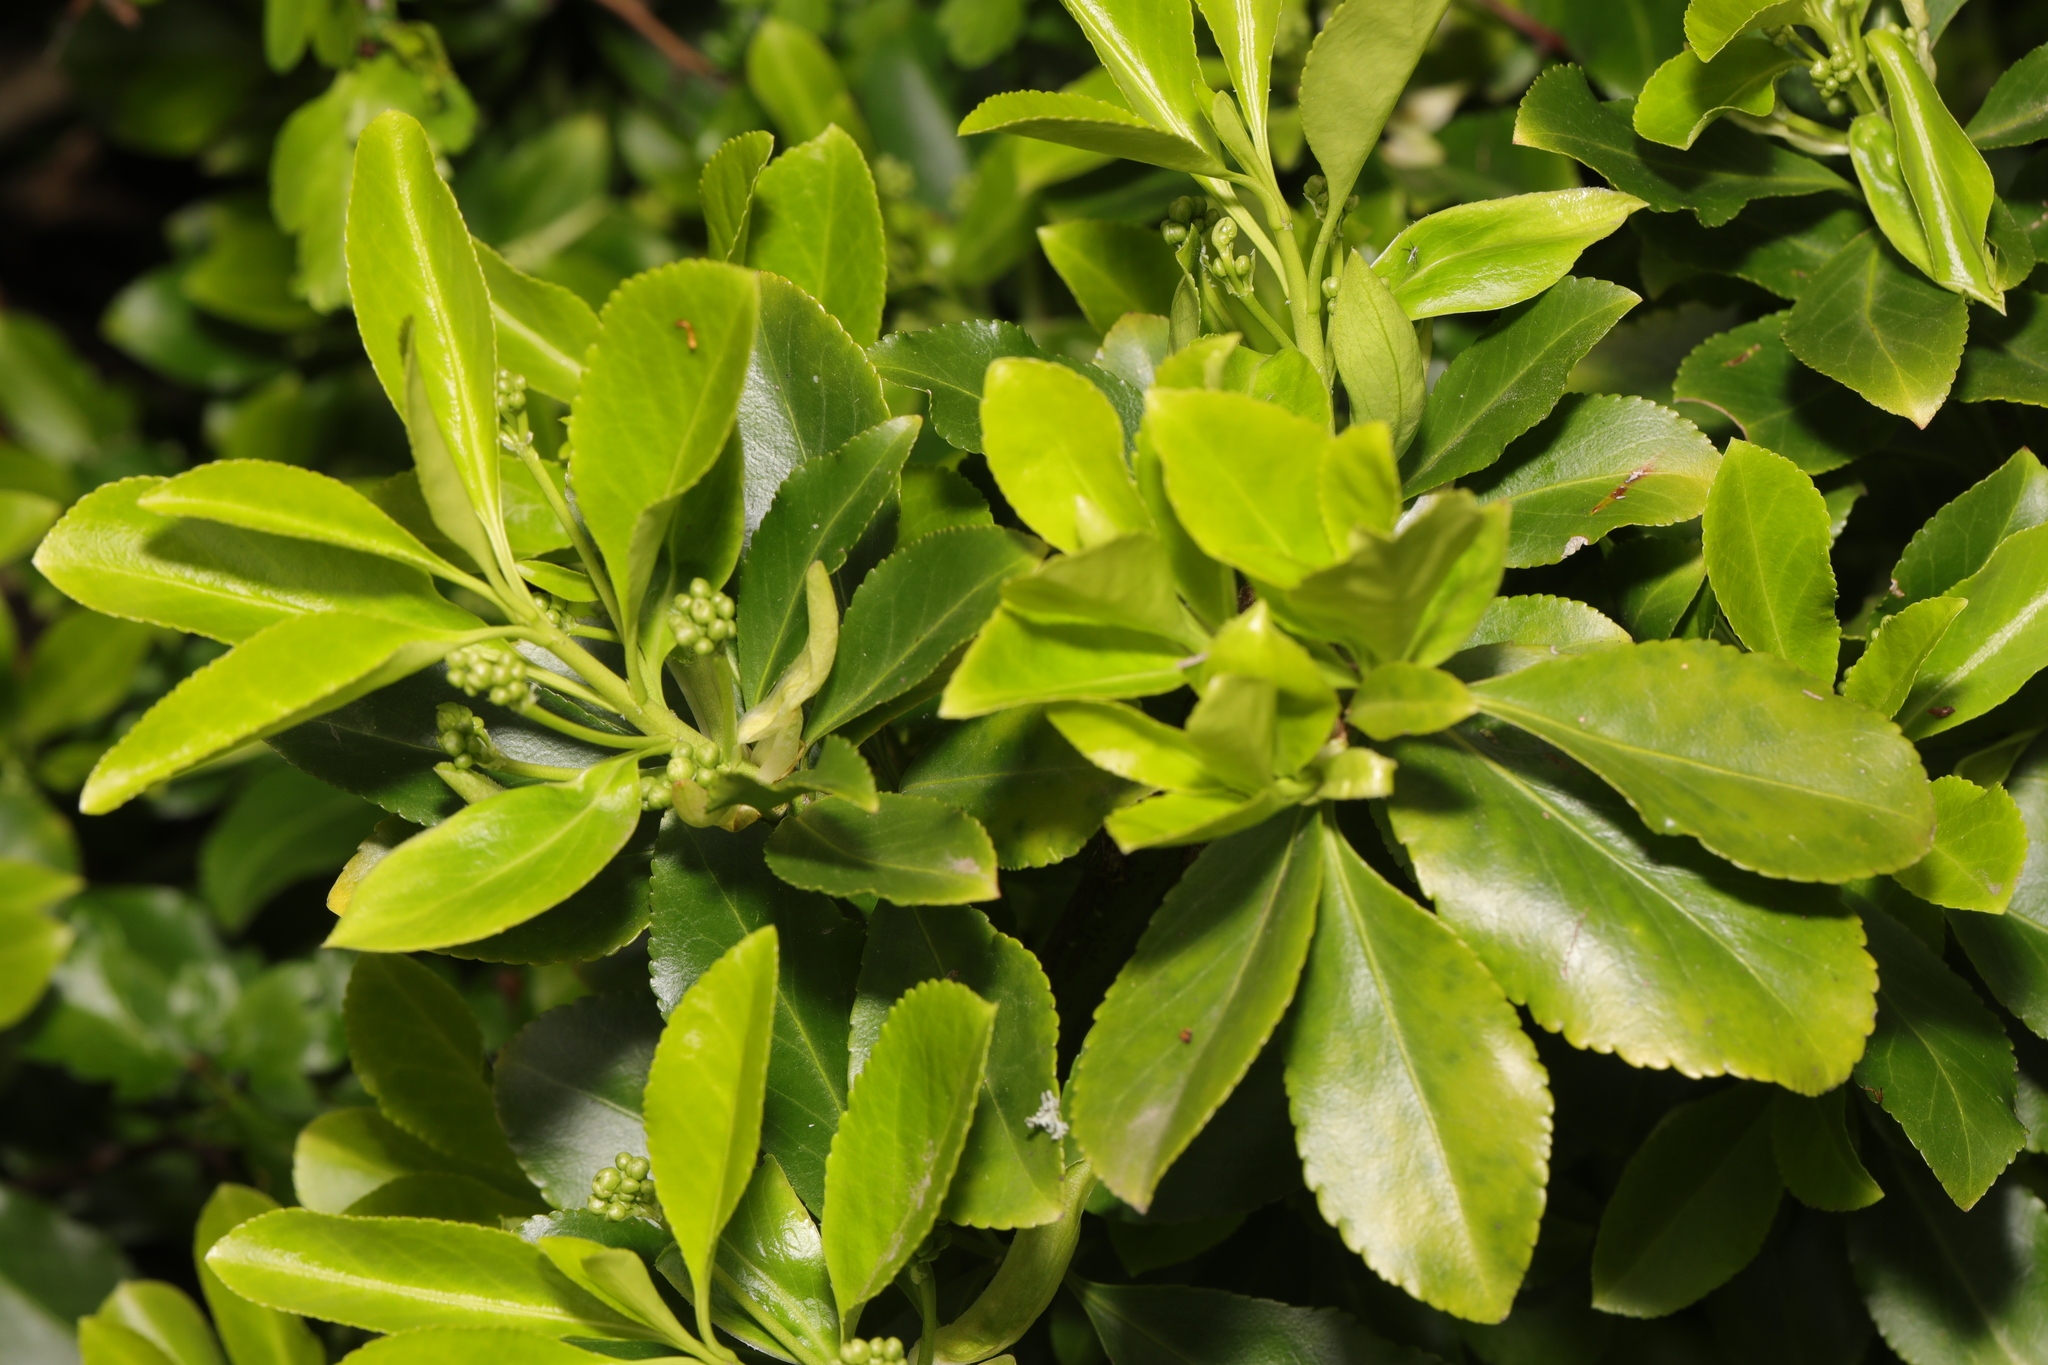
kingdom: Plantae
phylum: Tracheophyta
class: Magnoliopsida
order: Celastrales
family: Celastraceae
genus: Euonymus
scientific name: Euonymus japonicus
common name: Japanese spindletree
